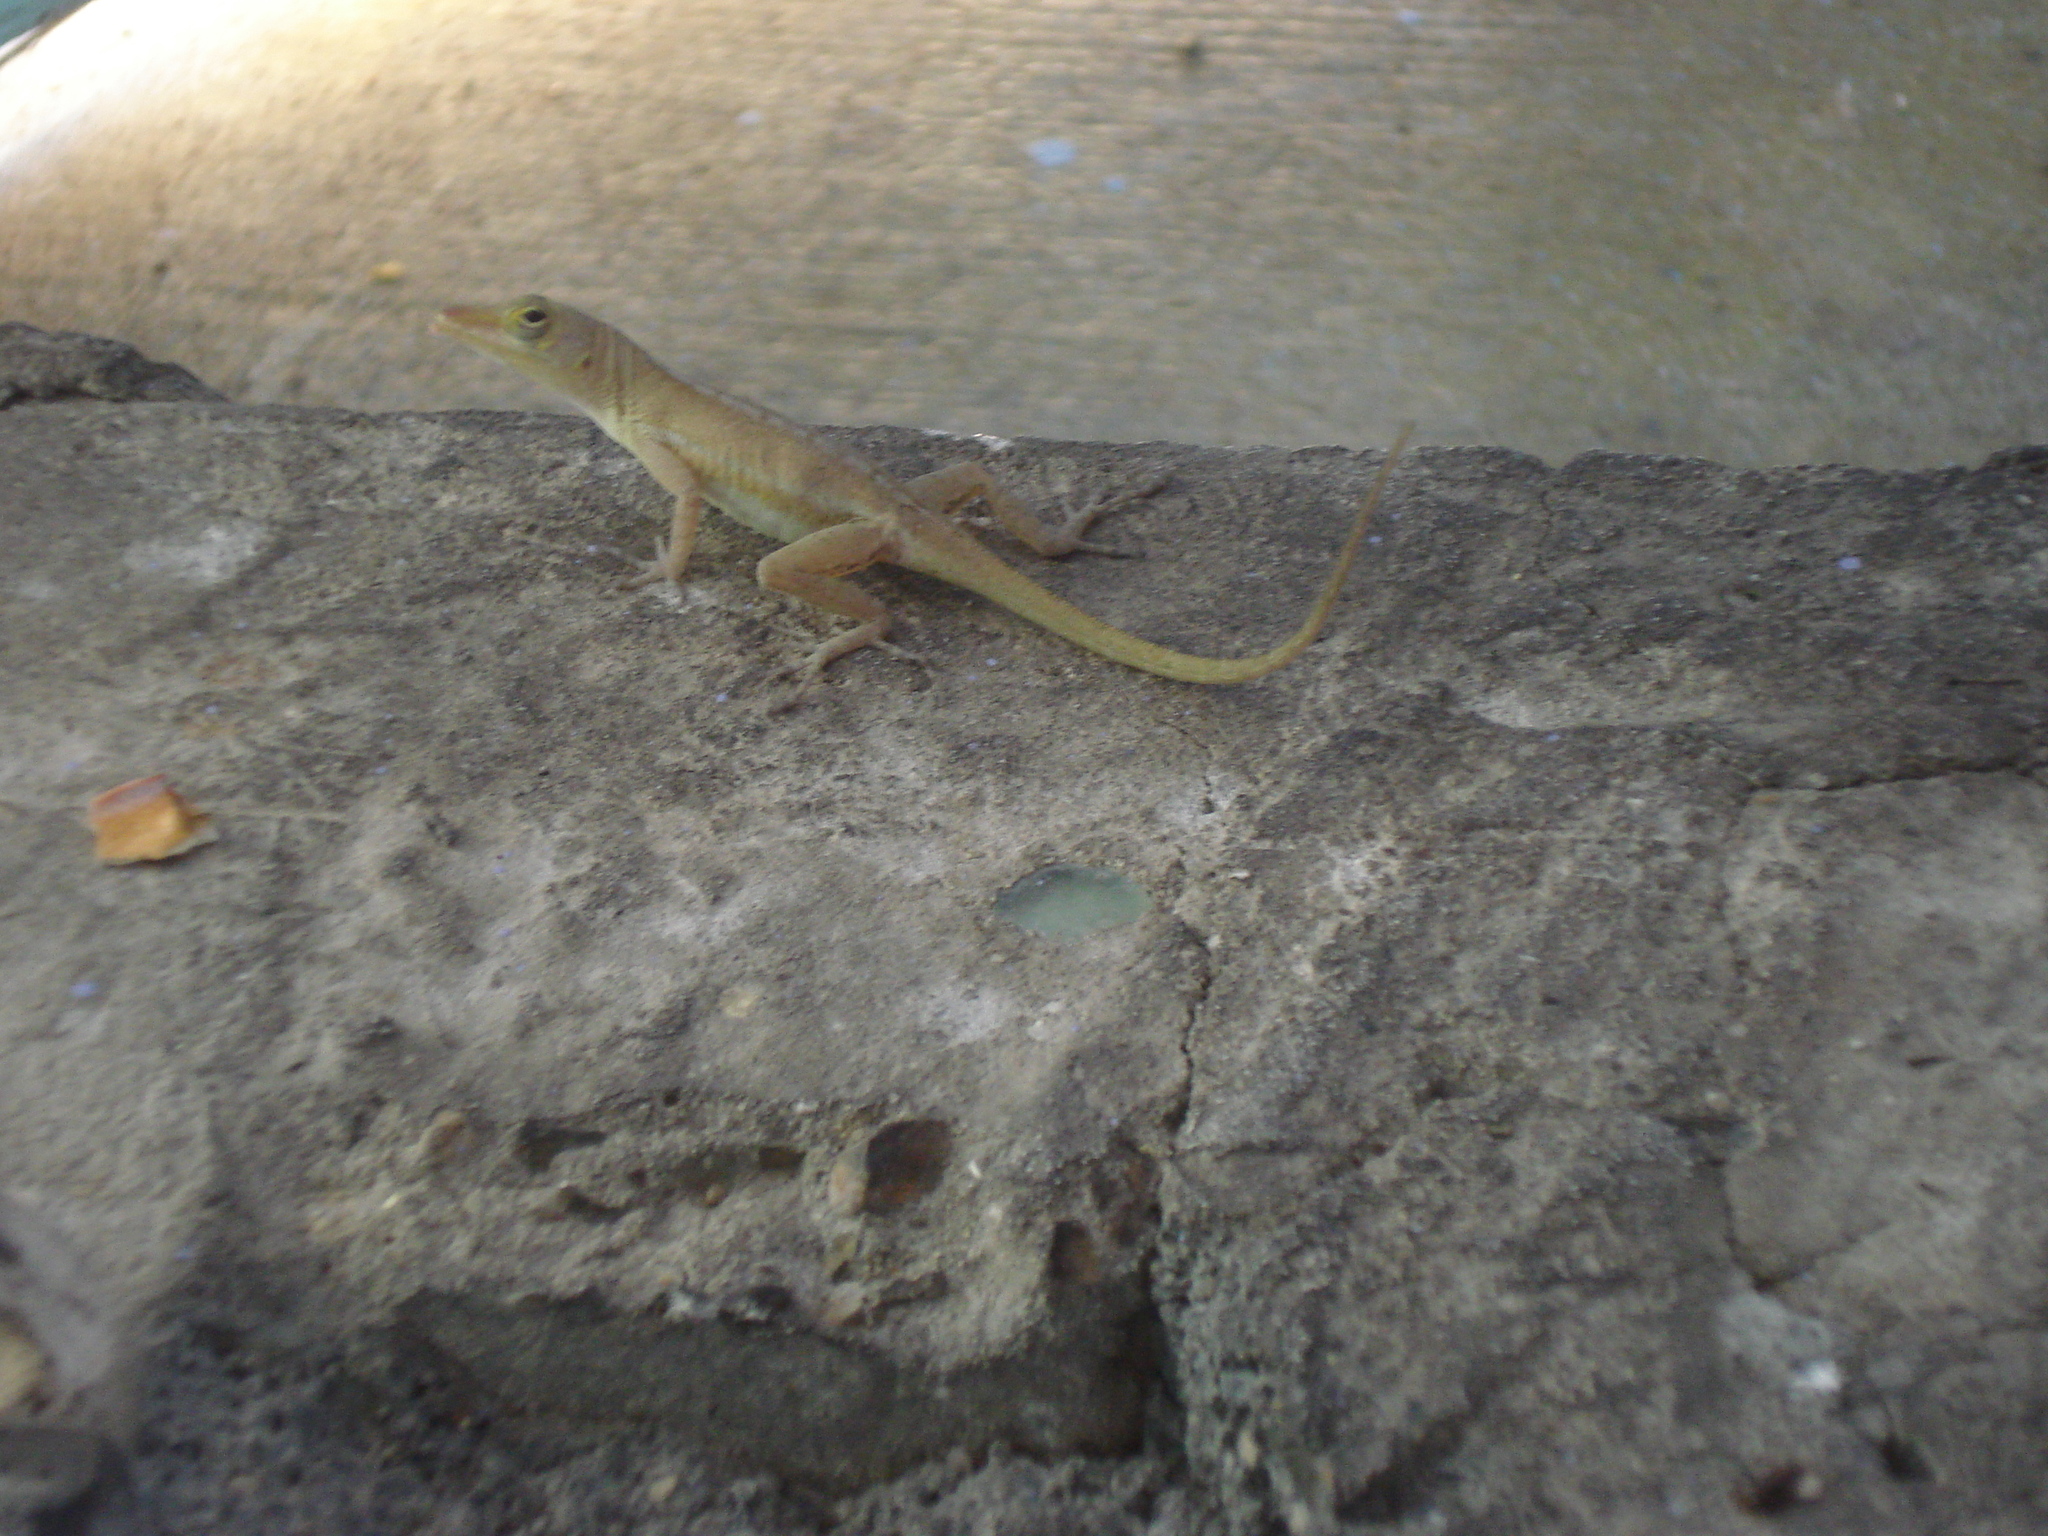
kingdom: Animalia
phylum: Chordata
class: Squamata
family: Dactyloidae
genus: Anolis
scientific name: Anolis acutus
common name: Saint croix's anole
